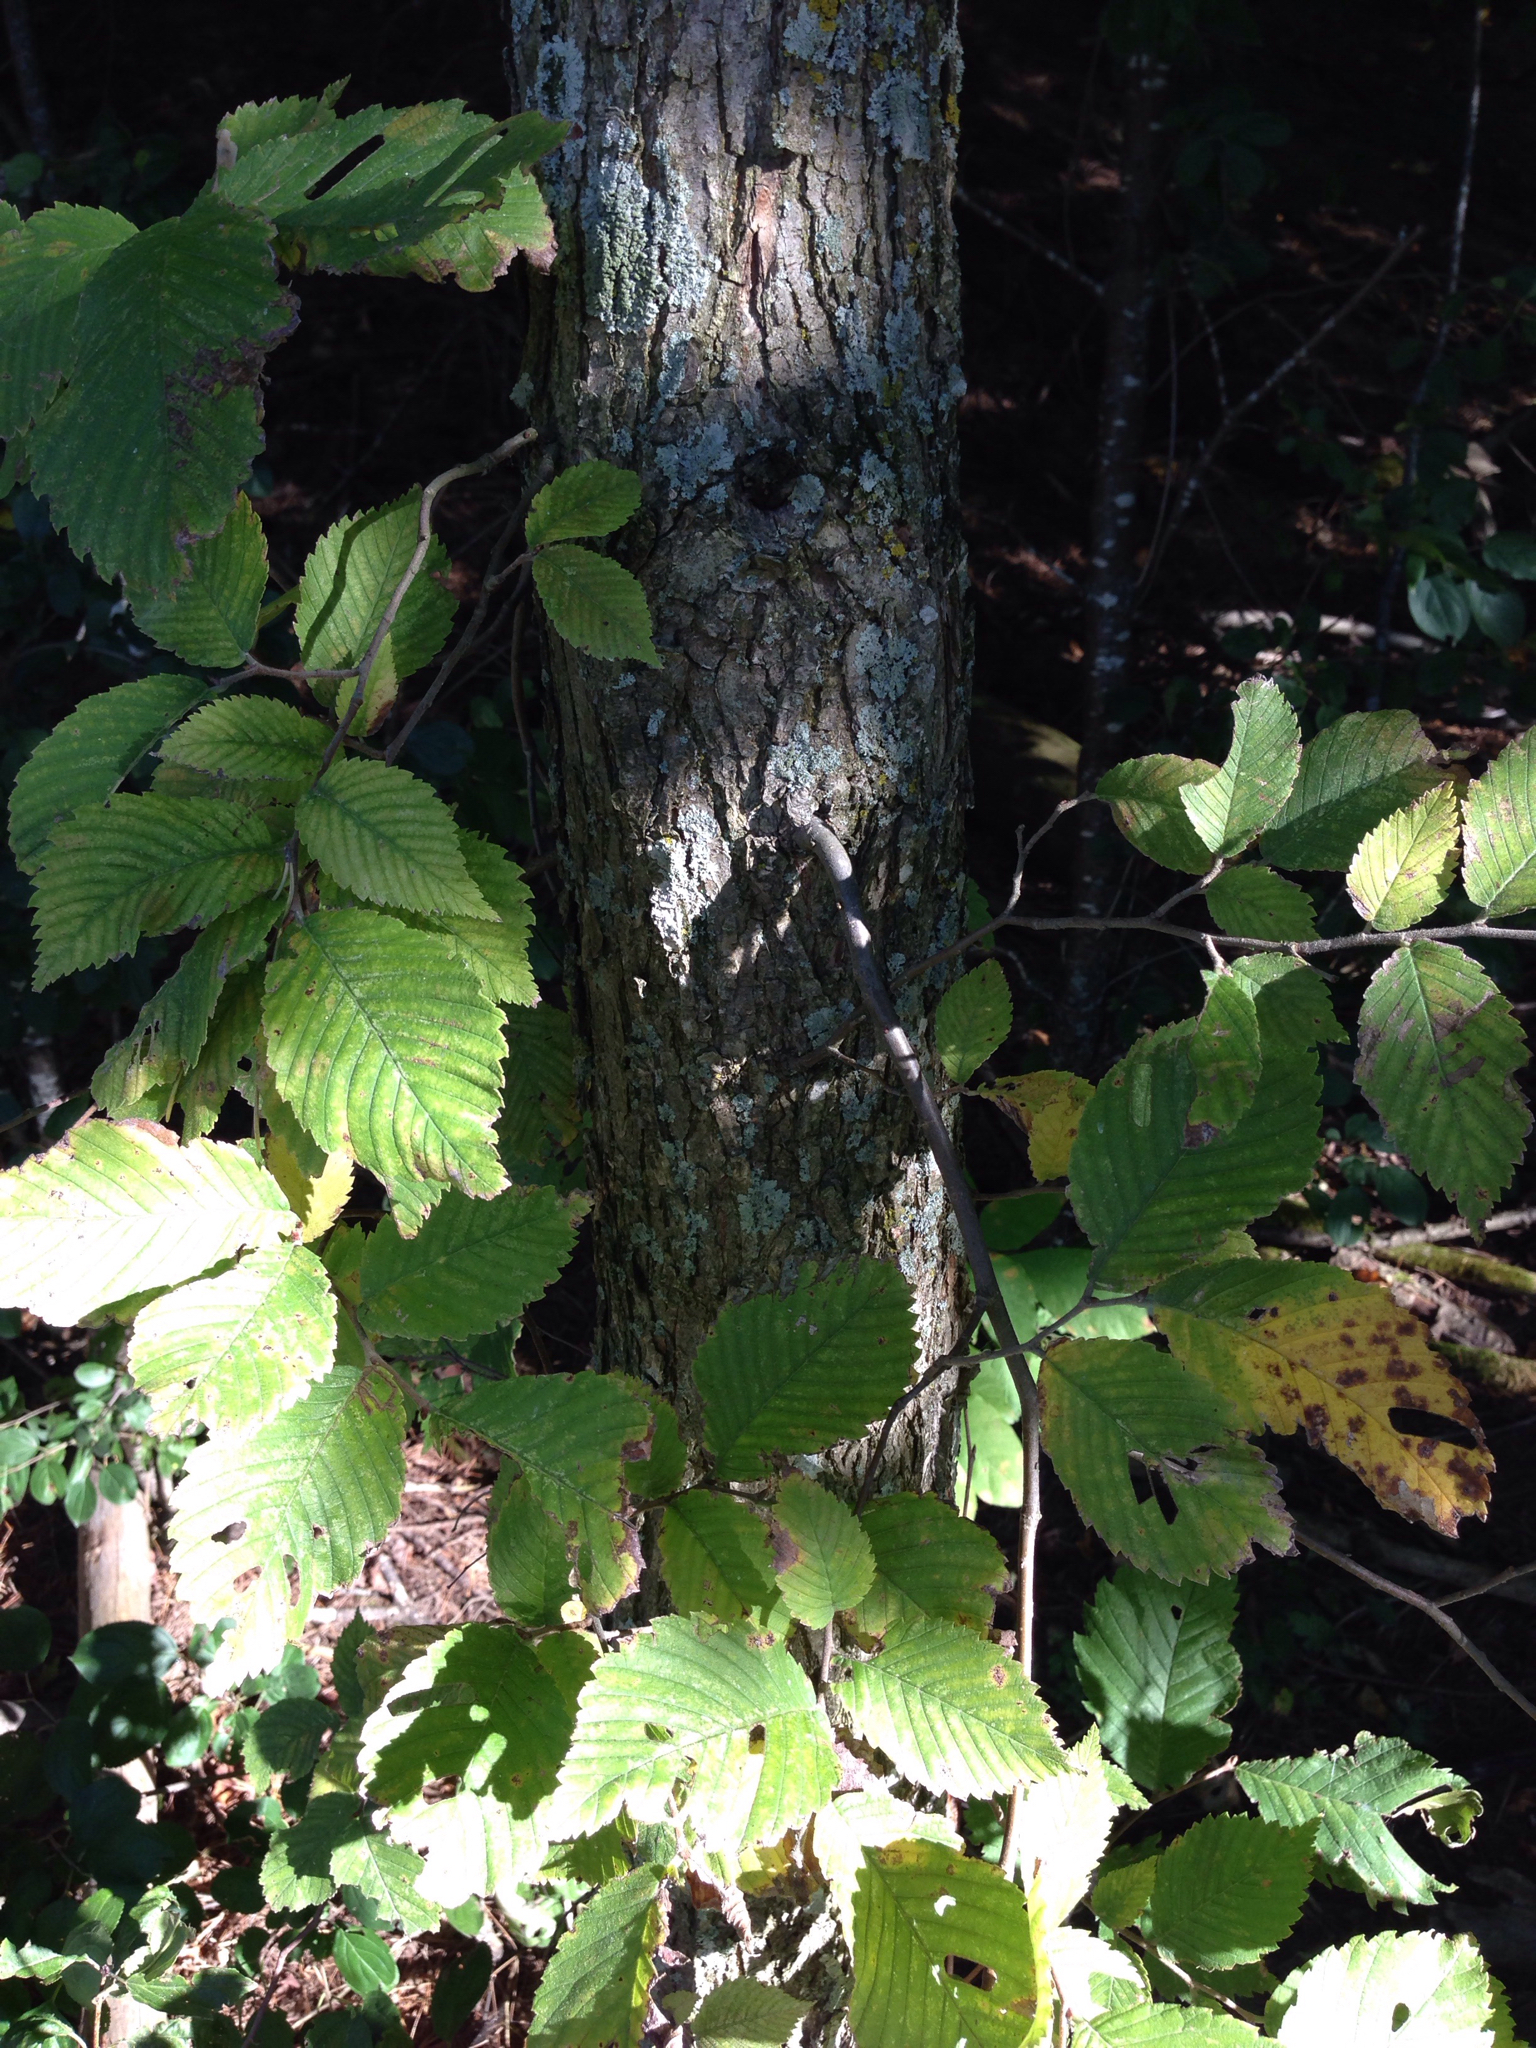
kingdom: Plantae
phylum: Tracheophyta
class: Magnoliopsida
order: Rosales
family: Ulmaceae
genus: Ulmus
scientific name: Ulmus americana
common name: American elm
